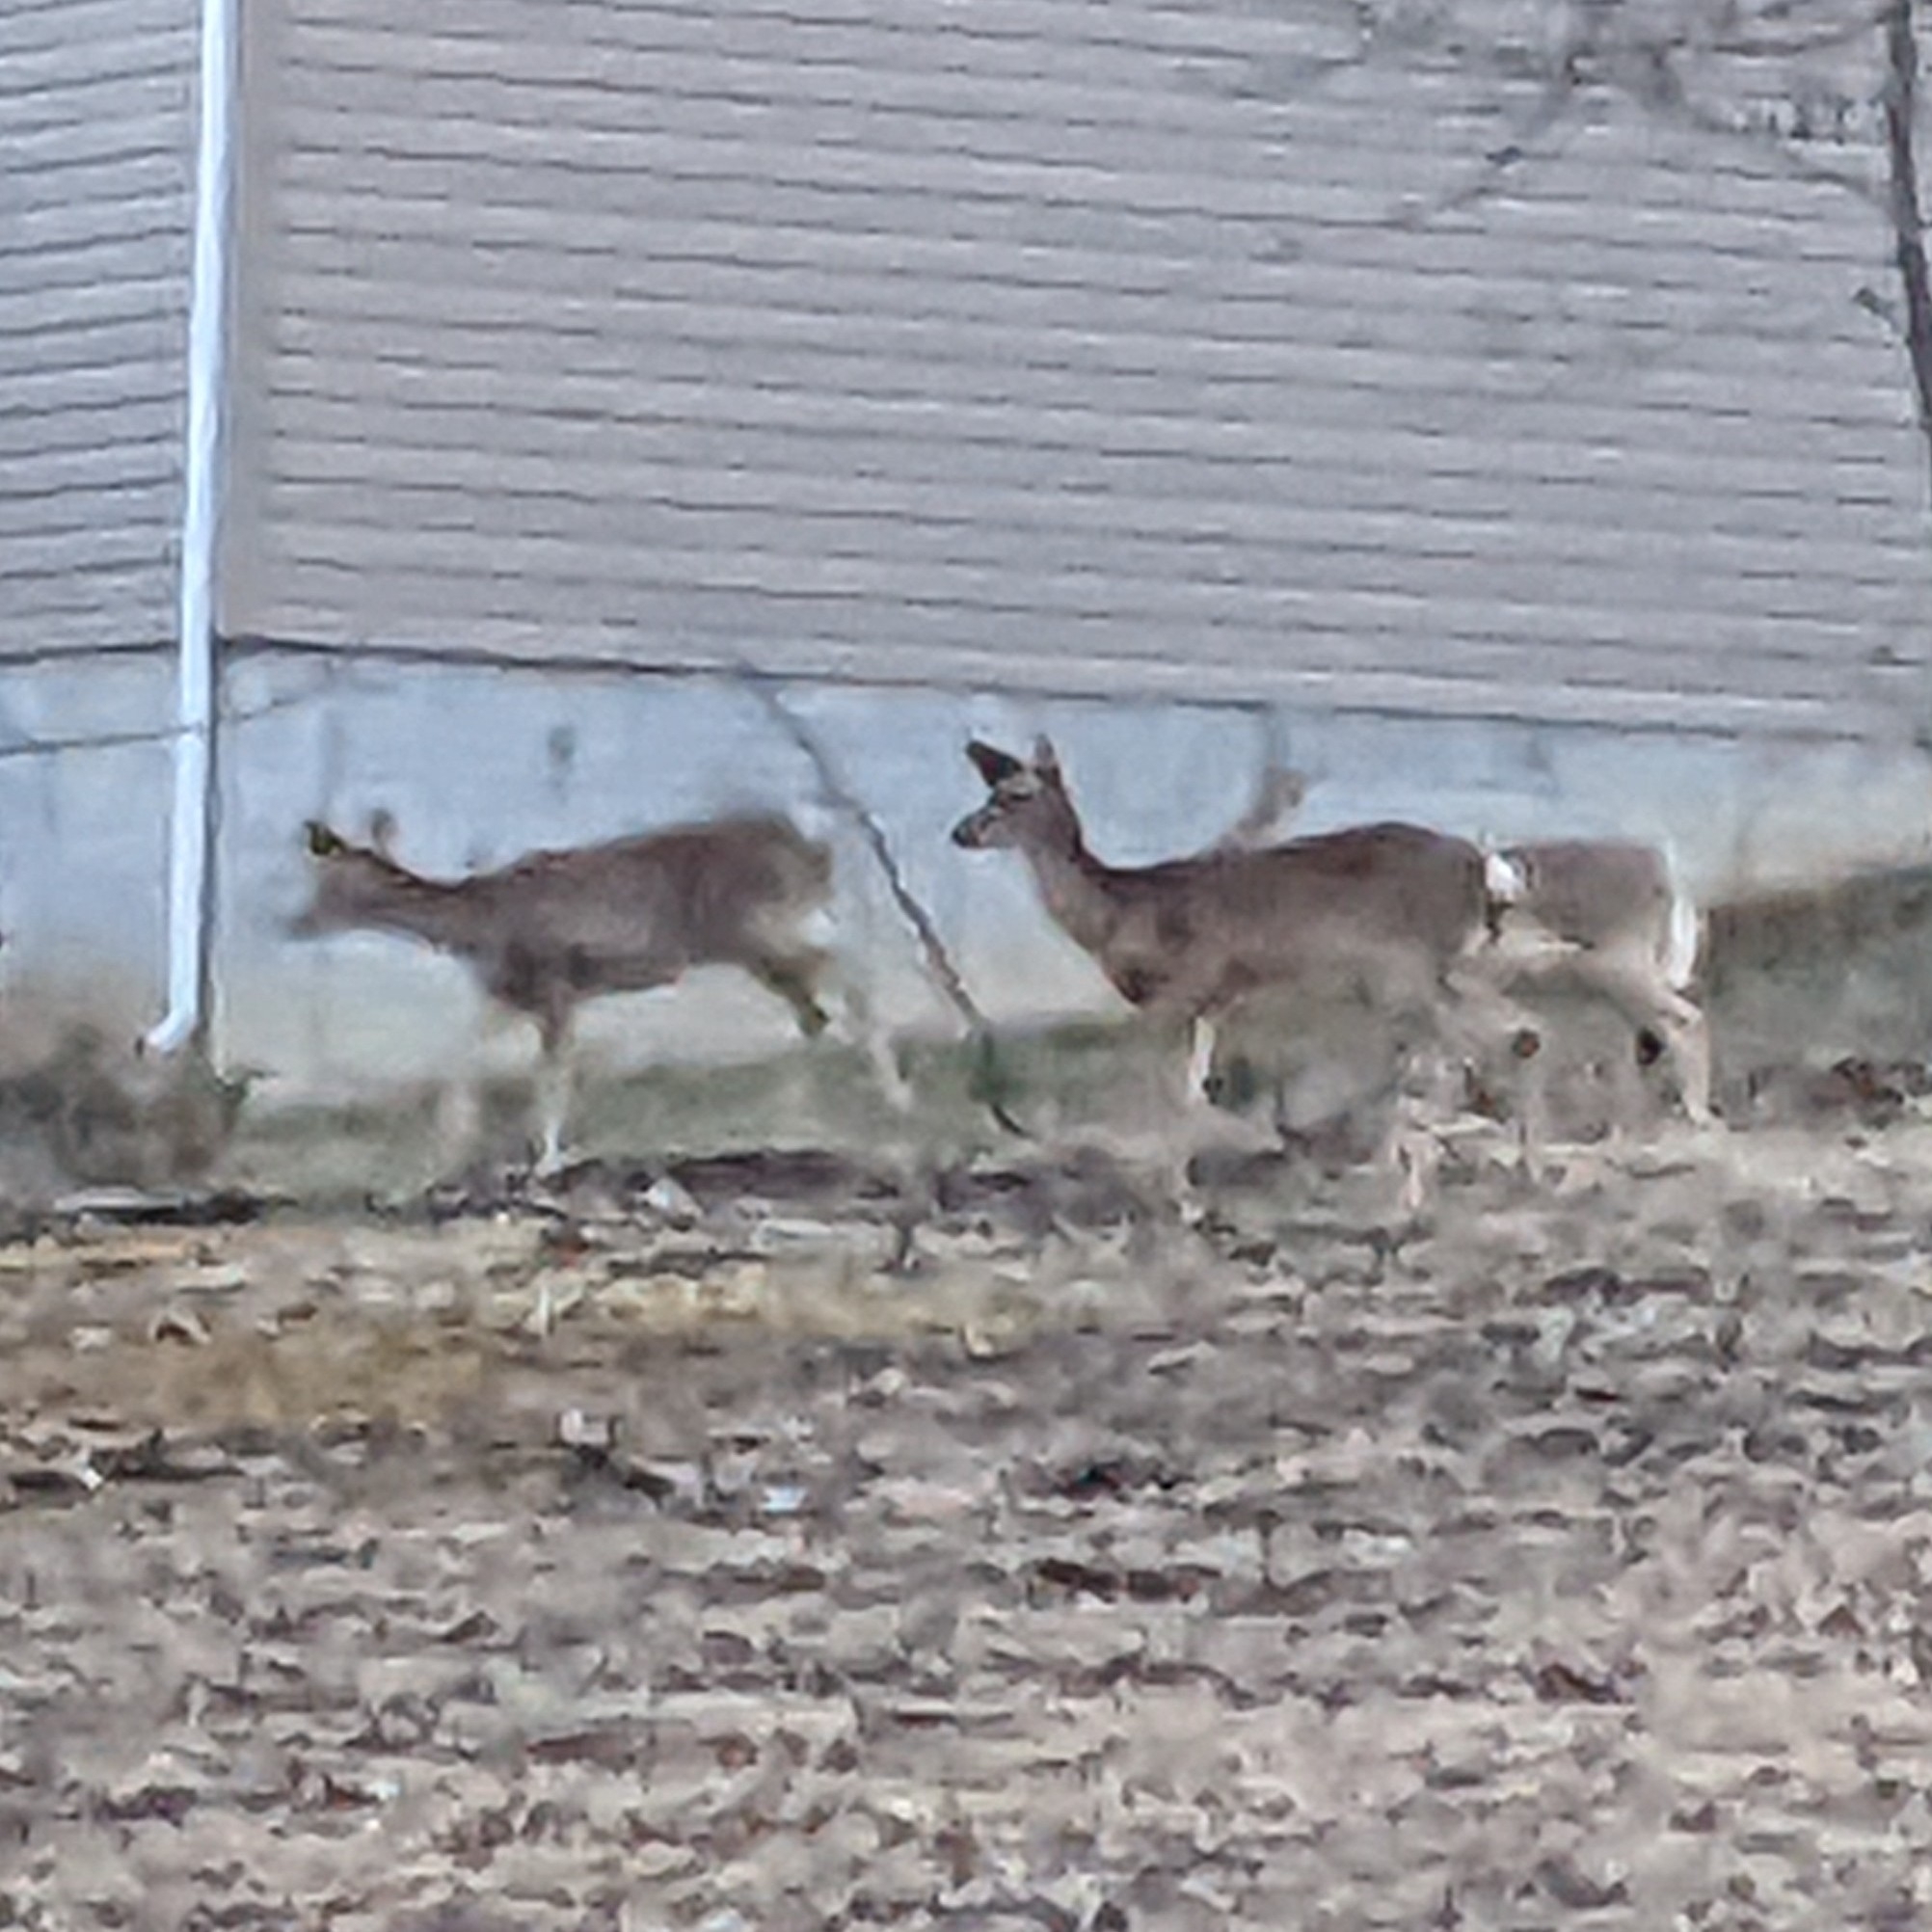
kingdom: Animalia
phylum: Chordata
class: Mammalia
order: Artiodactyla
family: Cervidae
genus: Odocoileus
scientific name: Odocoileus virginianus
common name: White-tailed deer
